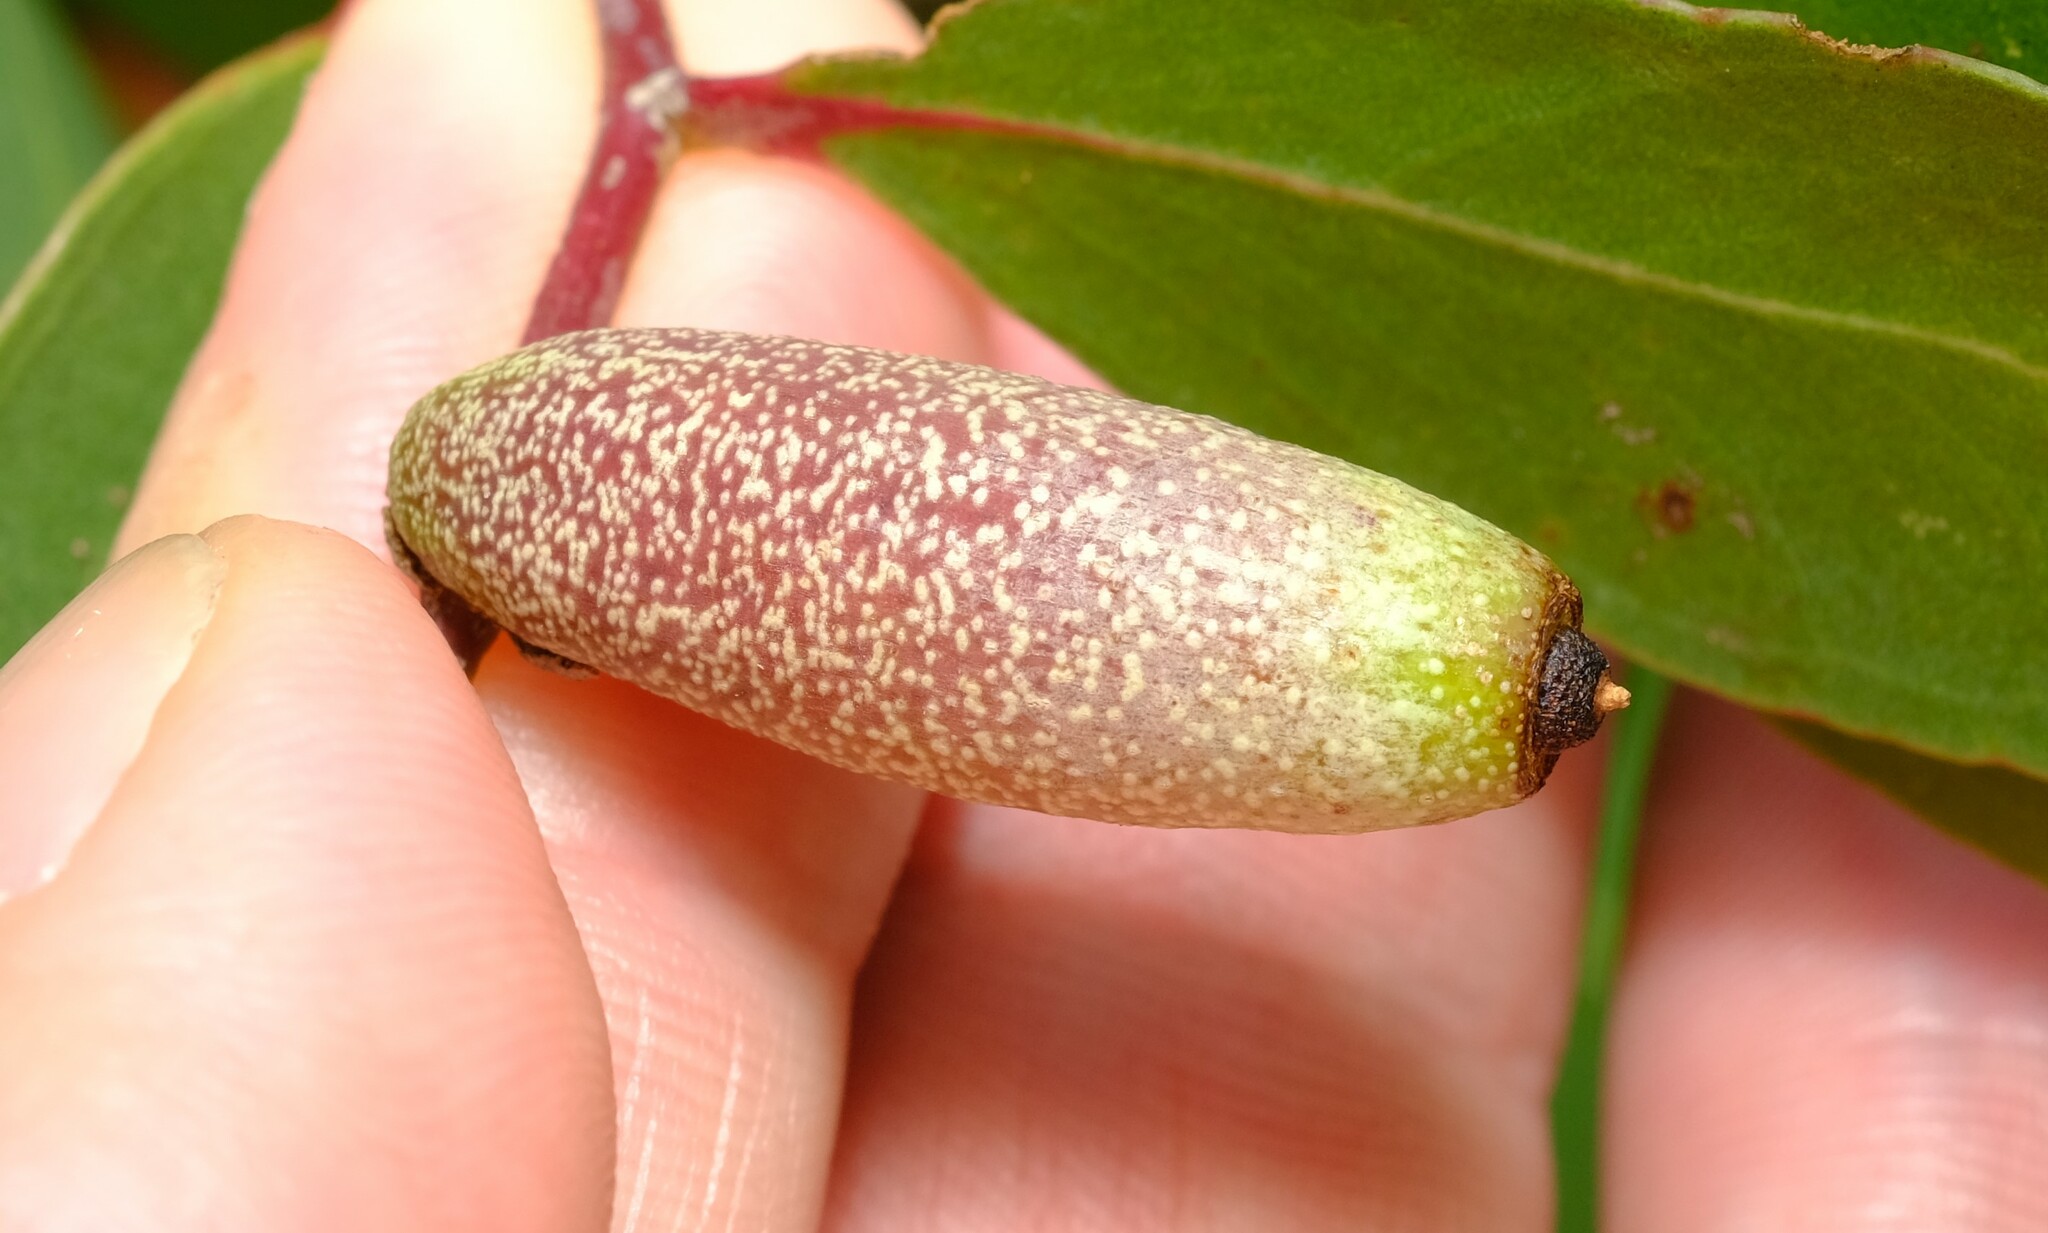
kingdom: Animalia
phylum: Arthropoda
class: Insecta
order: Hemiptera
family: Eriococcidae
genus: Apiomorpha
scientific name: Apiomorpha conica
